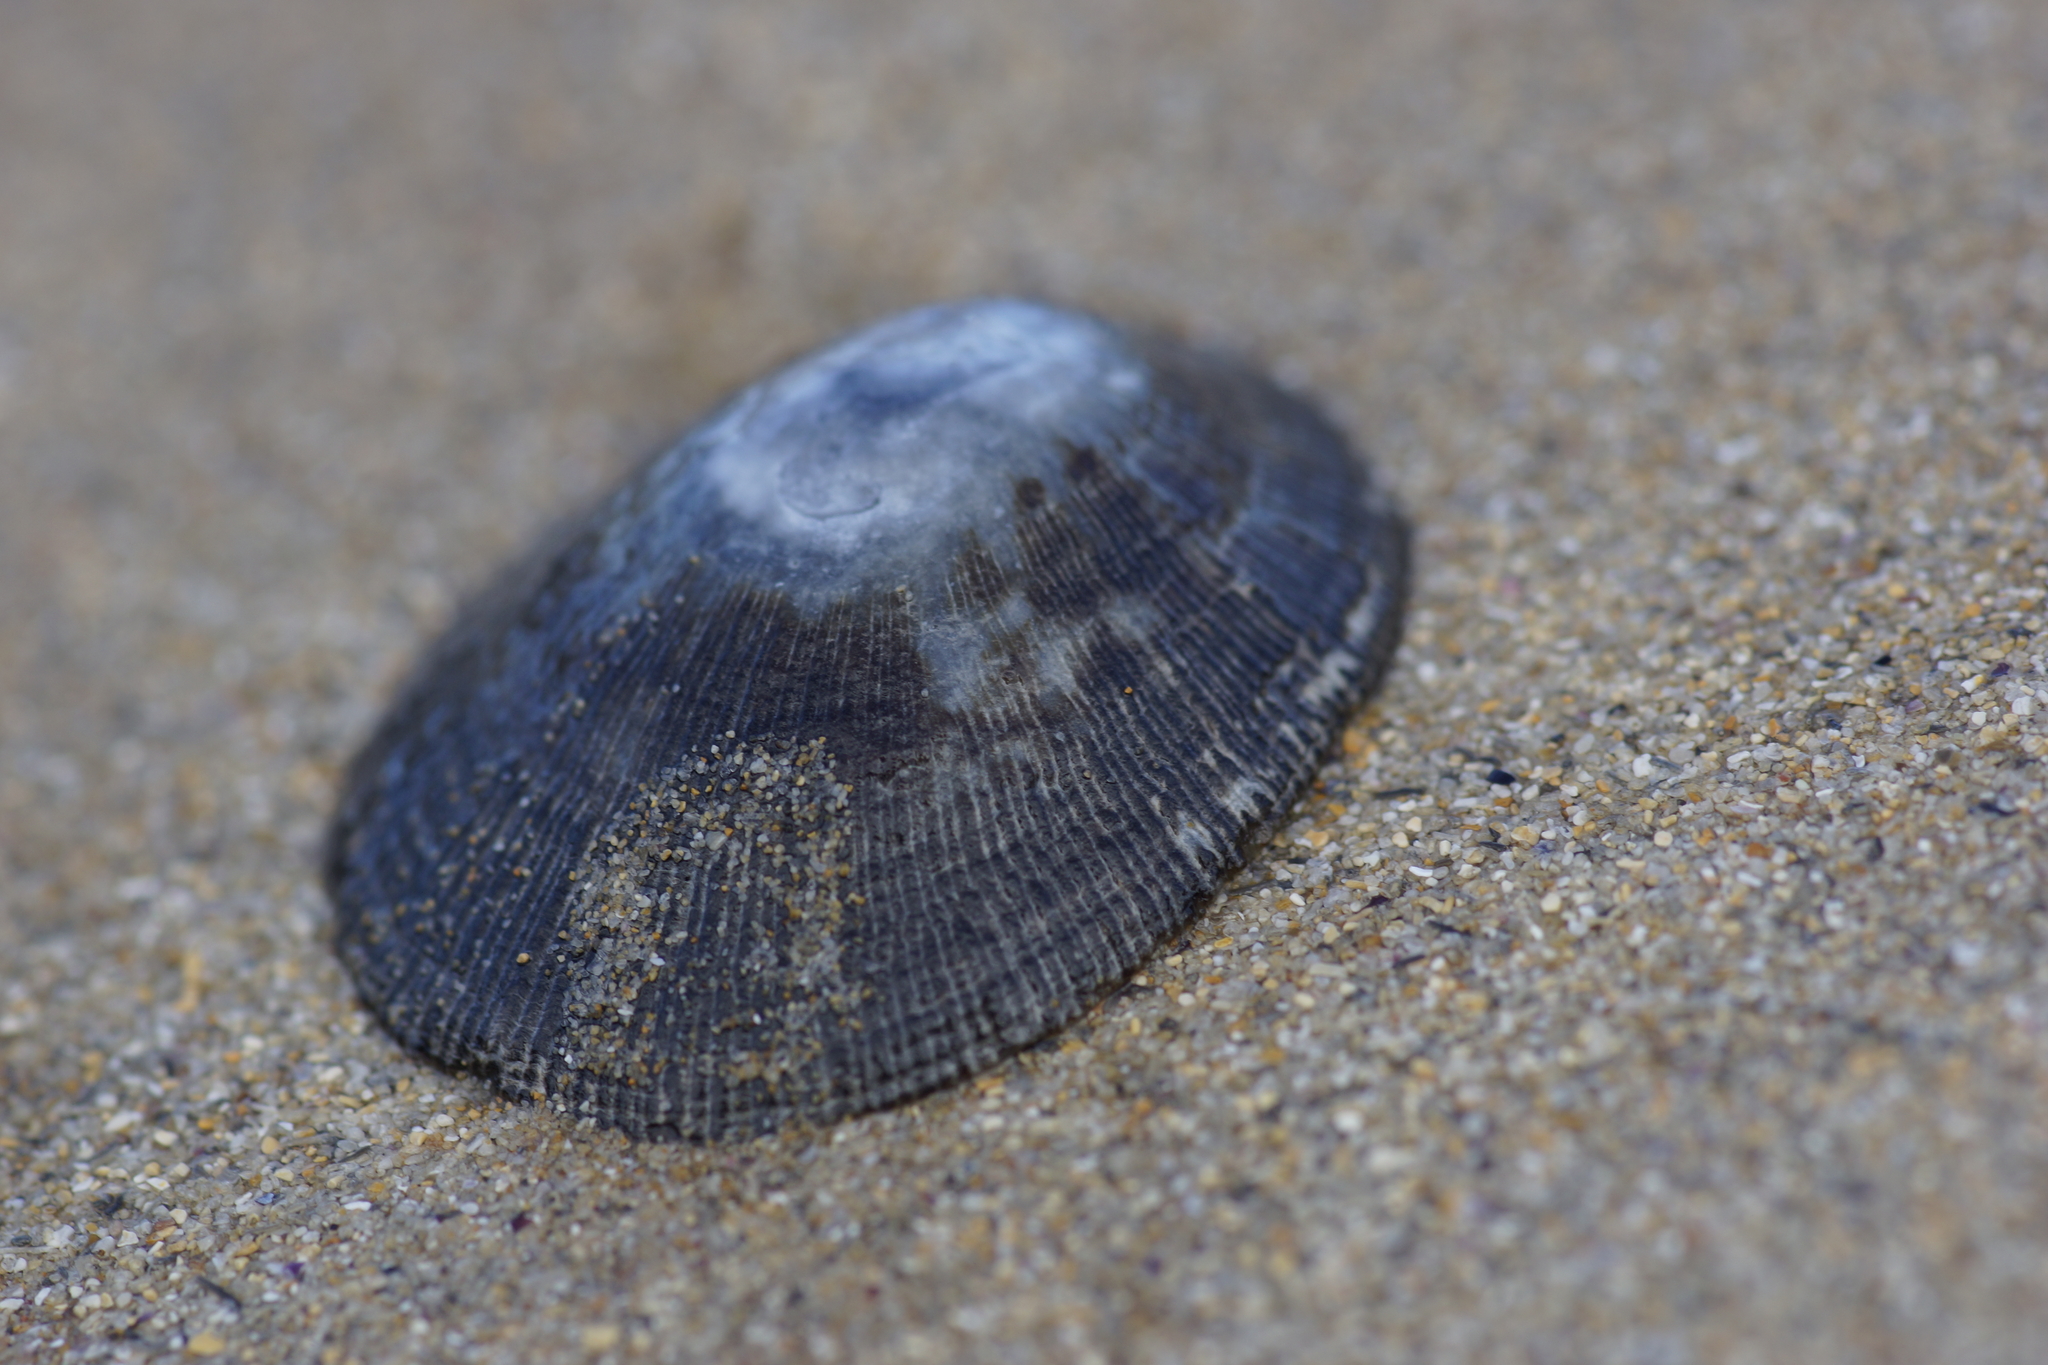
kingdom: Animalia
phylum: Mollusca
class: Gastropoda
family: Patellidae
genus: Scutellastra
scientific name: Scutellastra peronii
